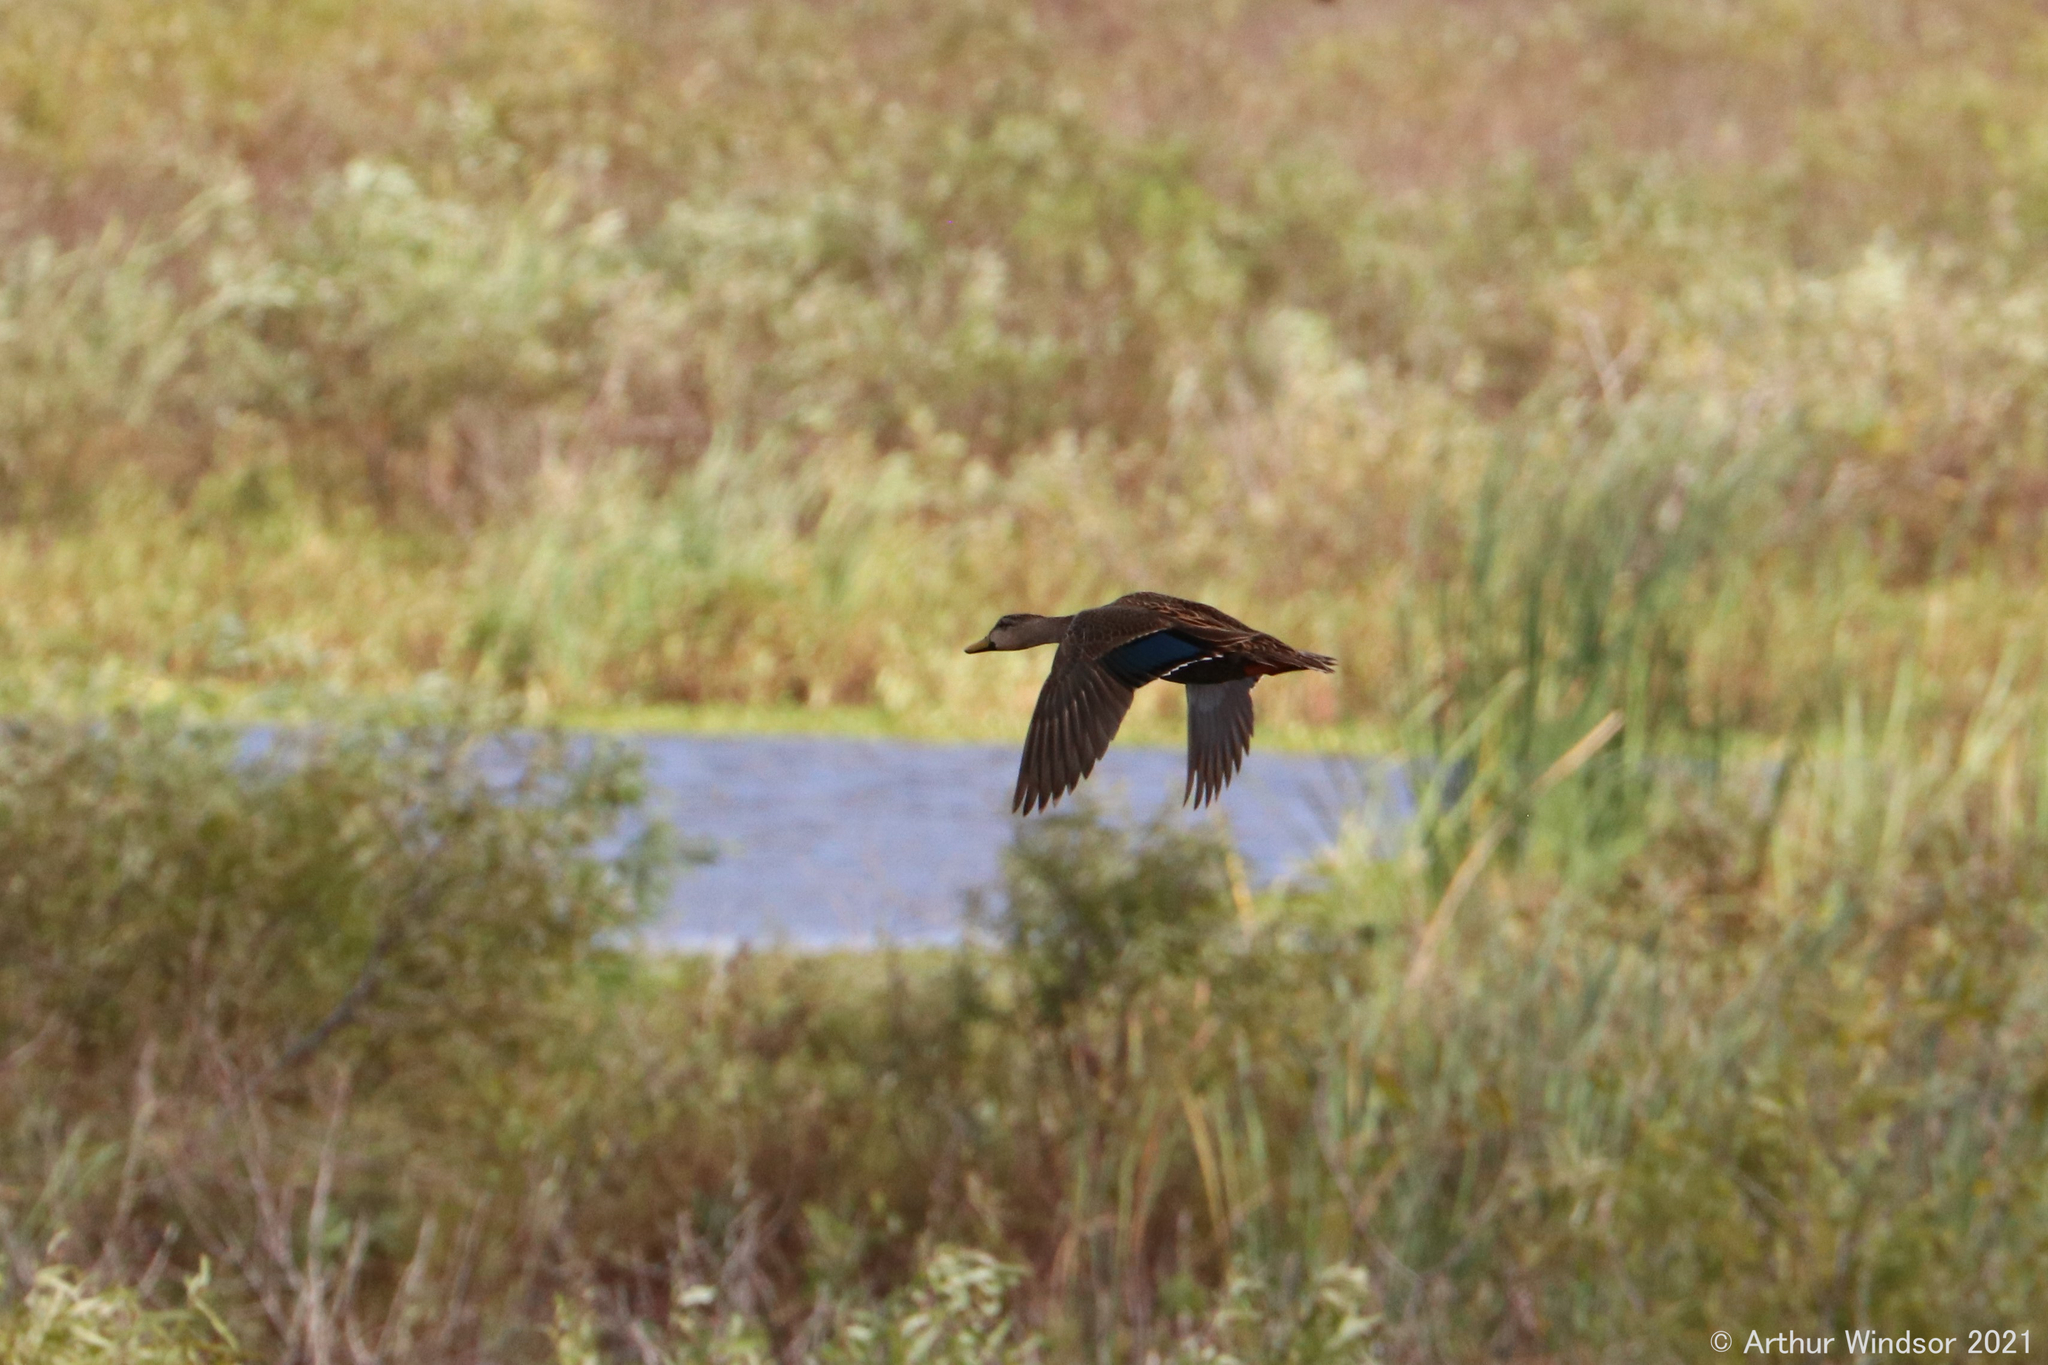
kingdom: Animalia
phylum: Chordata
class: Aves
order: Anseriformes
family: Anatidae
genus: Anas
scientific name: Anas fulvigula
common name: Mottled duck
